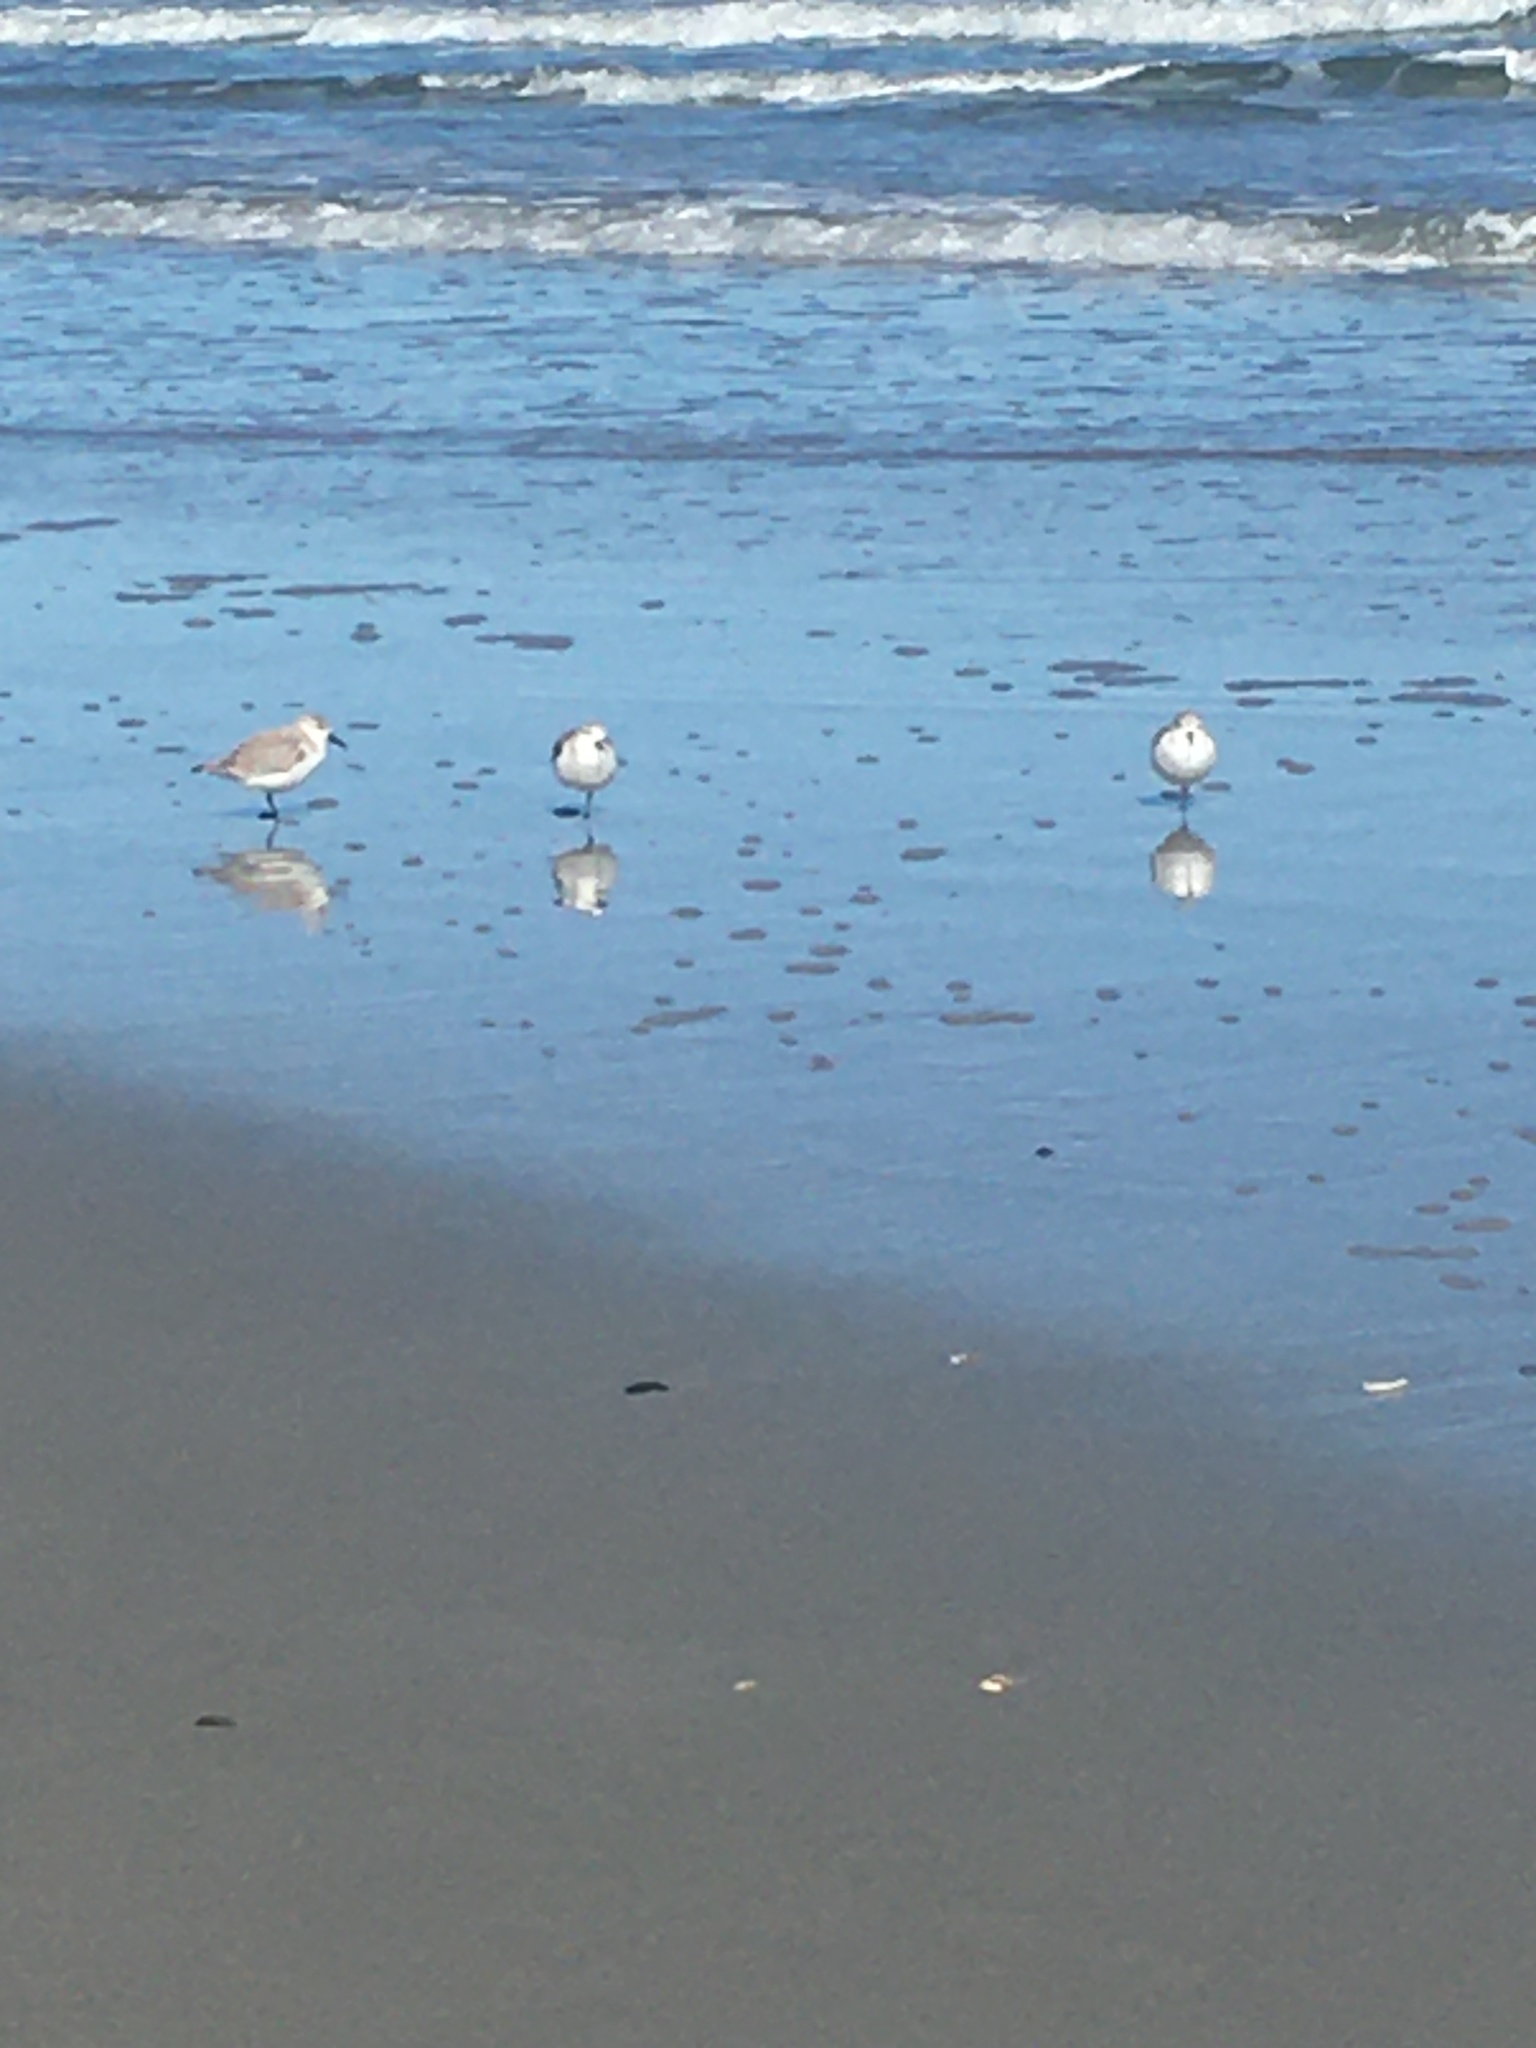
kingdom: Animalia
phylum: Chordata
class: Aves
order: Charadriiformes
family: Scolopacidae
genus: Calidris
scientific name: Calidris alba
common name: Sanderling
